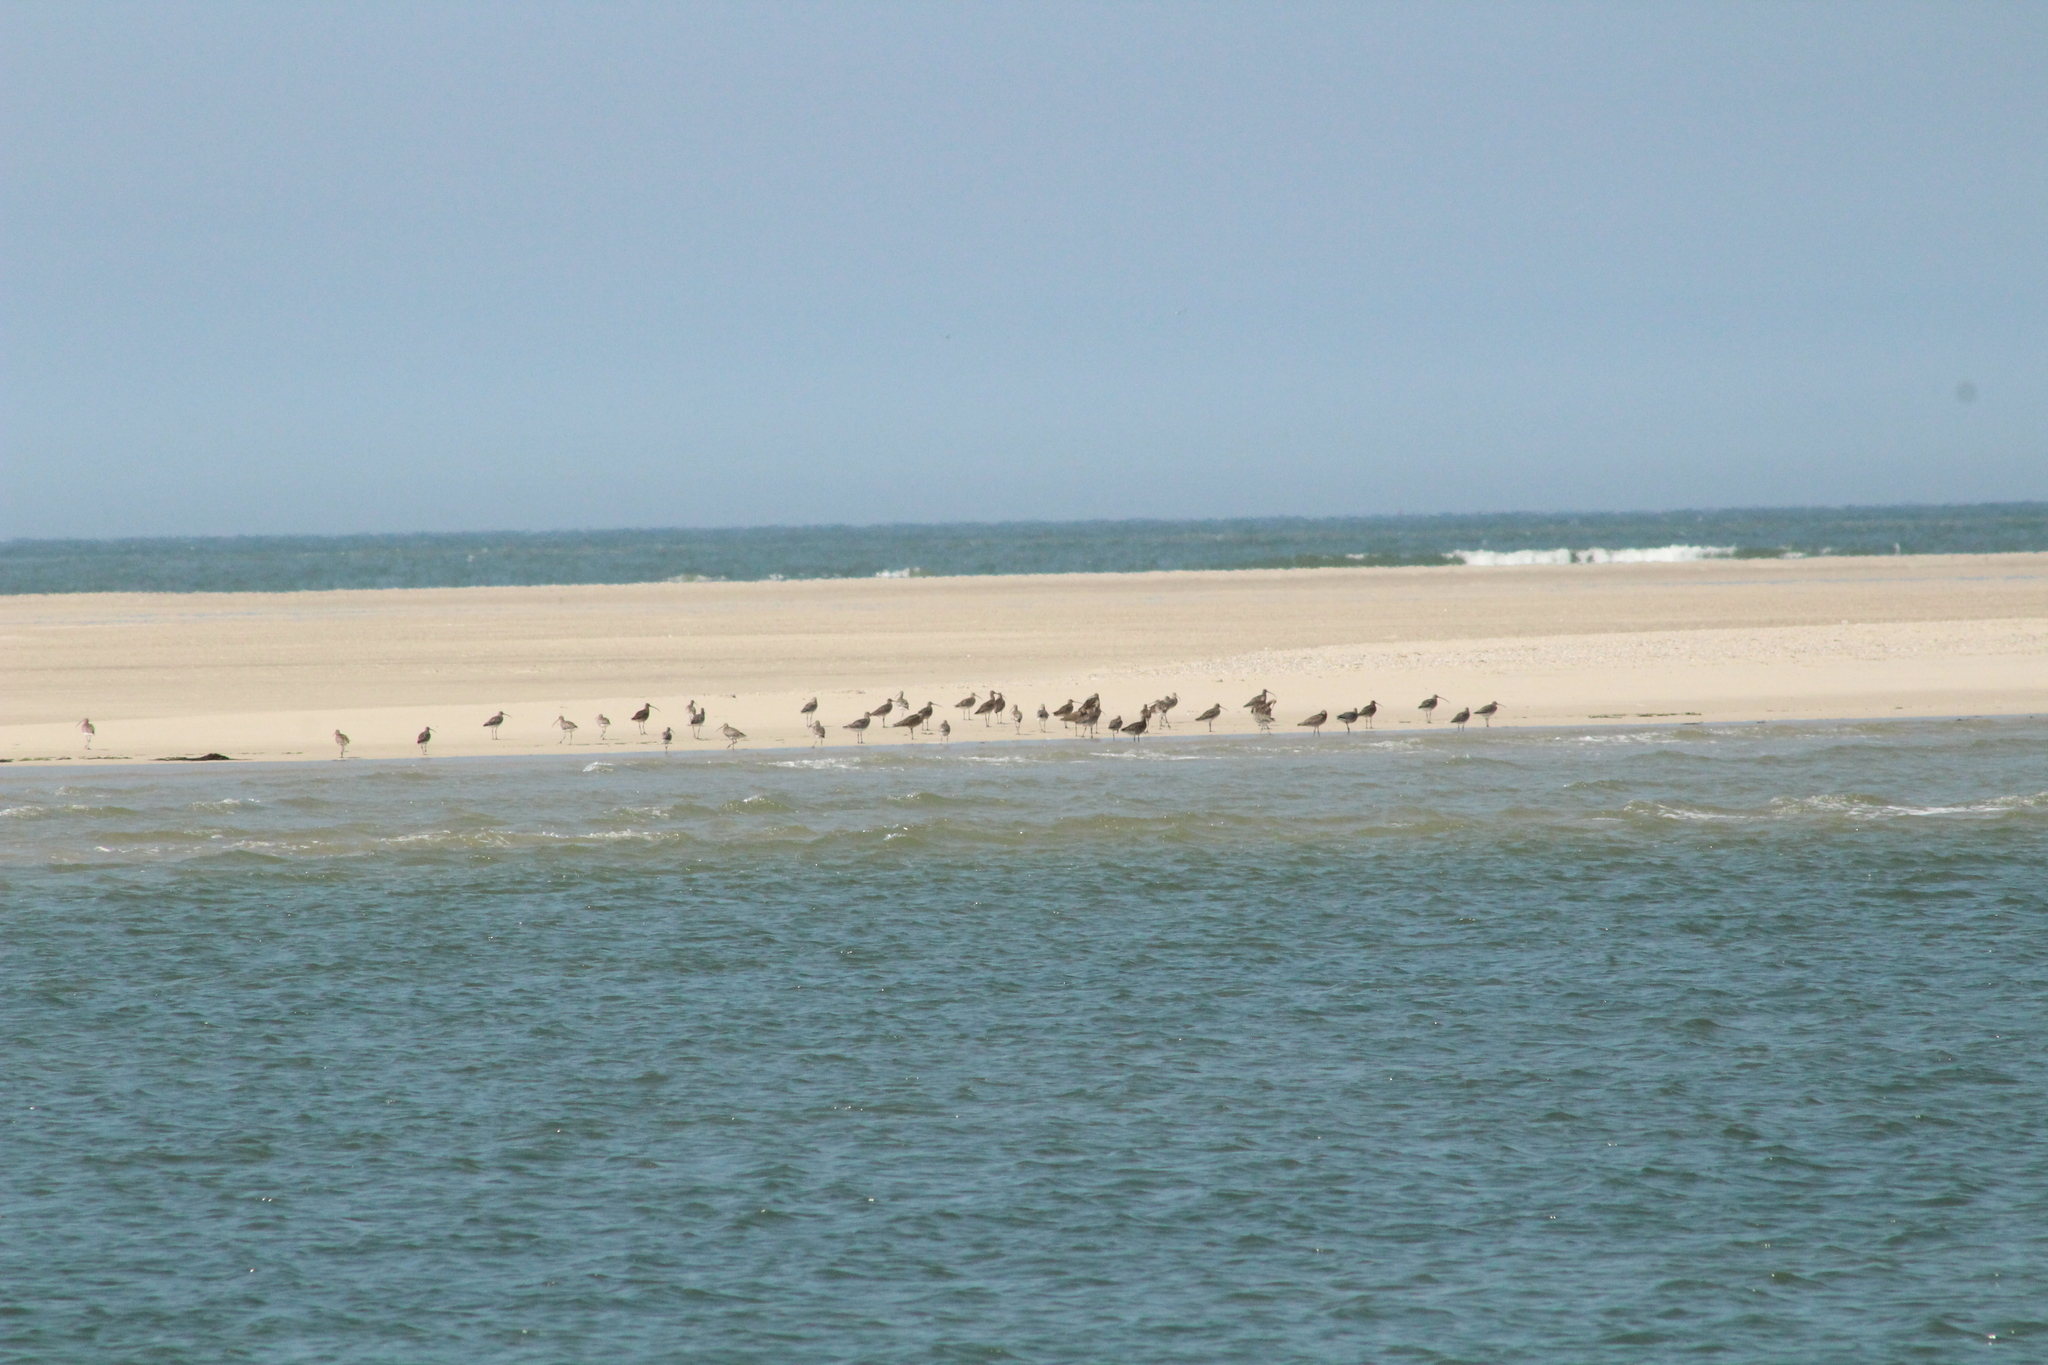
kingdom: Animalia
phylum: Chordata
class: Aves
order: Charadriiformes
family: Scolopacidae
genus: Numenius
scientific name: Numenius arquata
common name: Eurasian curlew
